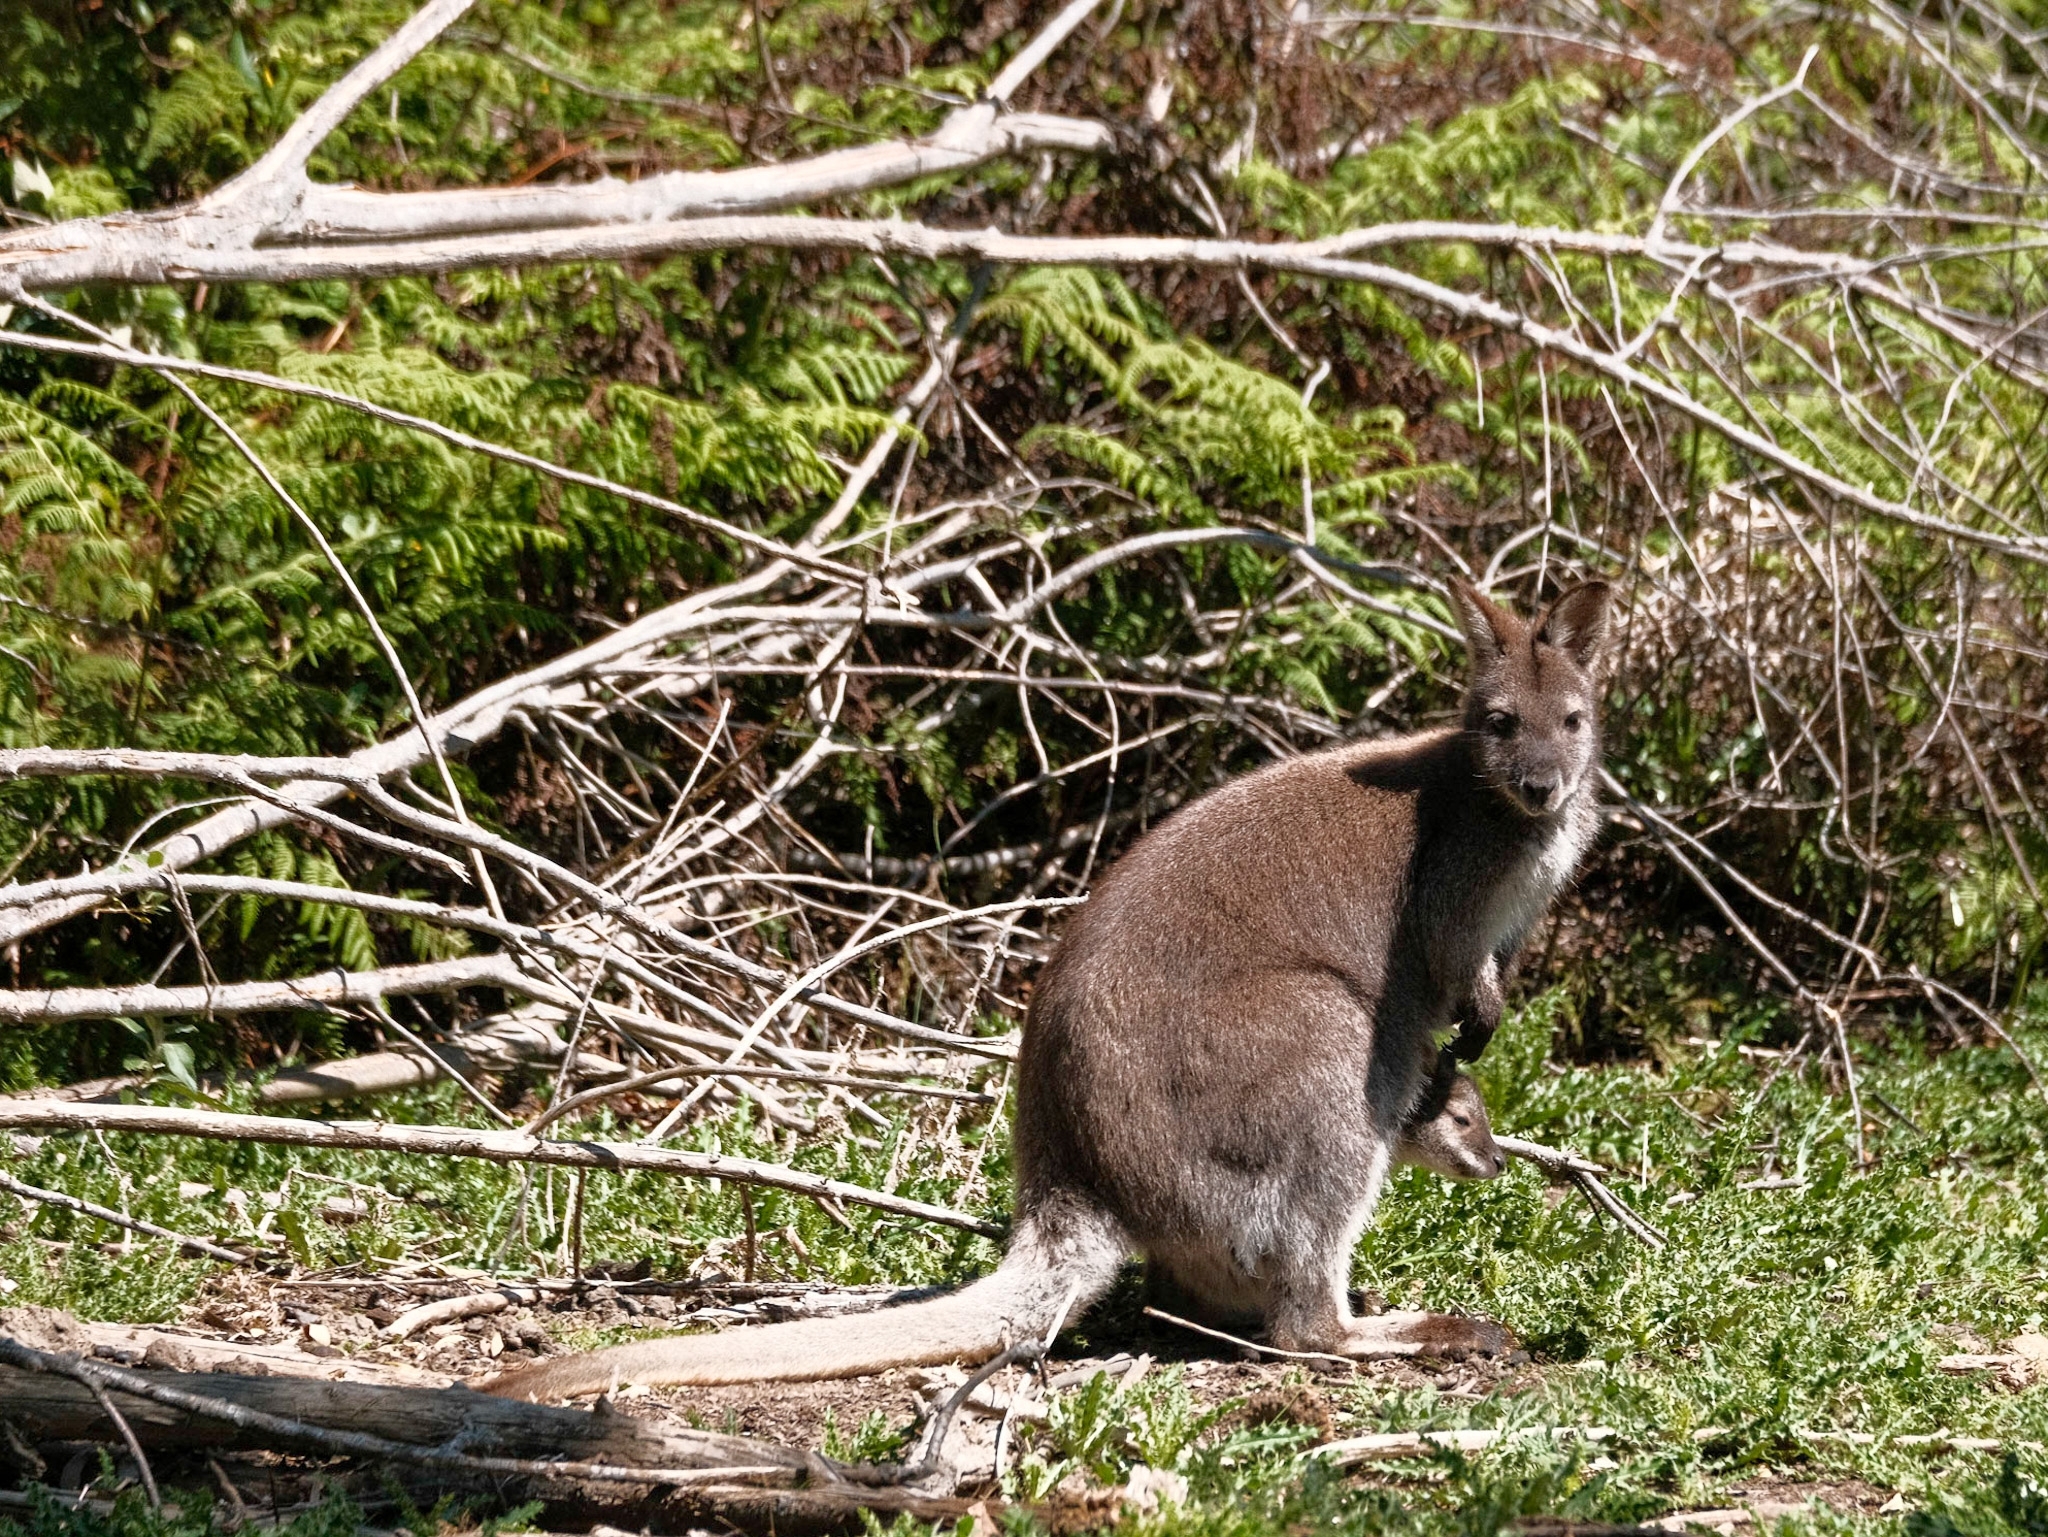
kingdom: Animalia
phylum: Chordata
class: Mammalia
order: Diprotodontia
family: Macropodidae
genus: Notamacropus
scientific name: Notamacropus rufogriseus
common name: Red-necked wallaby
